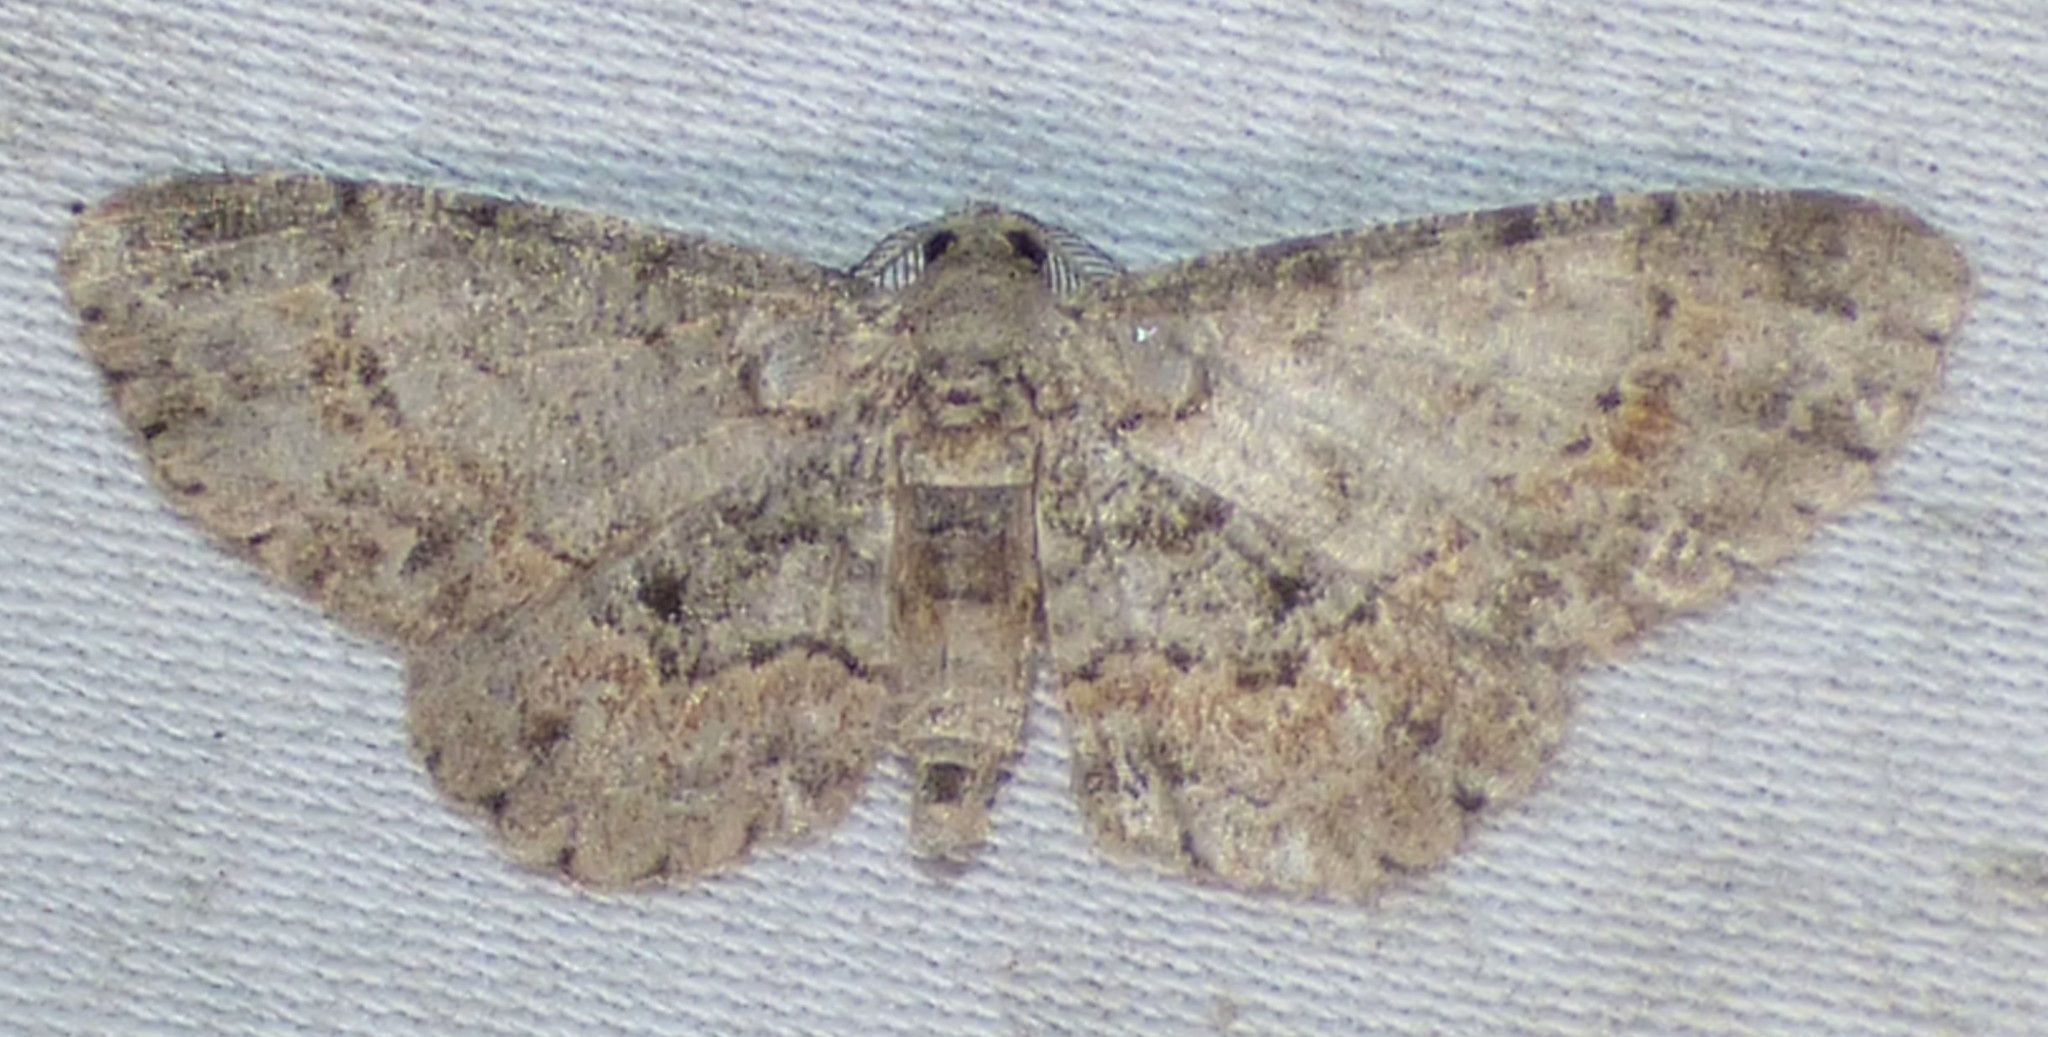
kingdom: Animalia
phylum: Arthropoda
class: Insecta
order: Lepidoptera
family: Geometridae
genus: Glenoides
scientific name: Glenoides texanaria
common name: Texas gray
